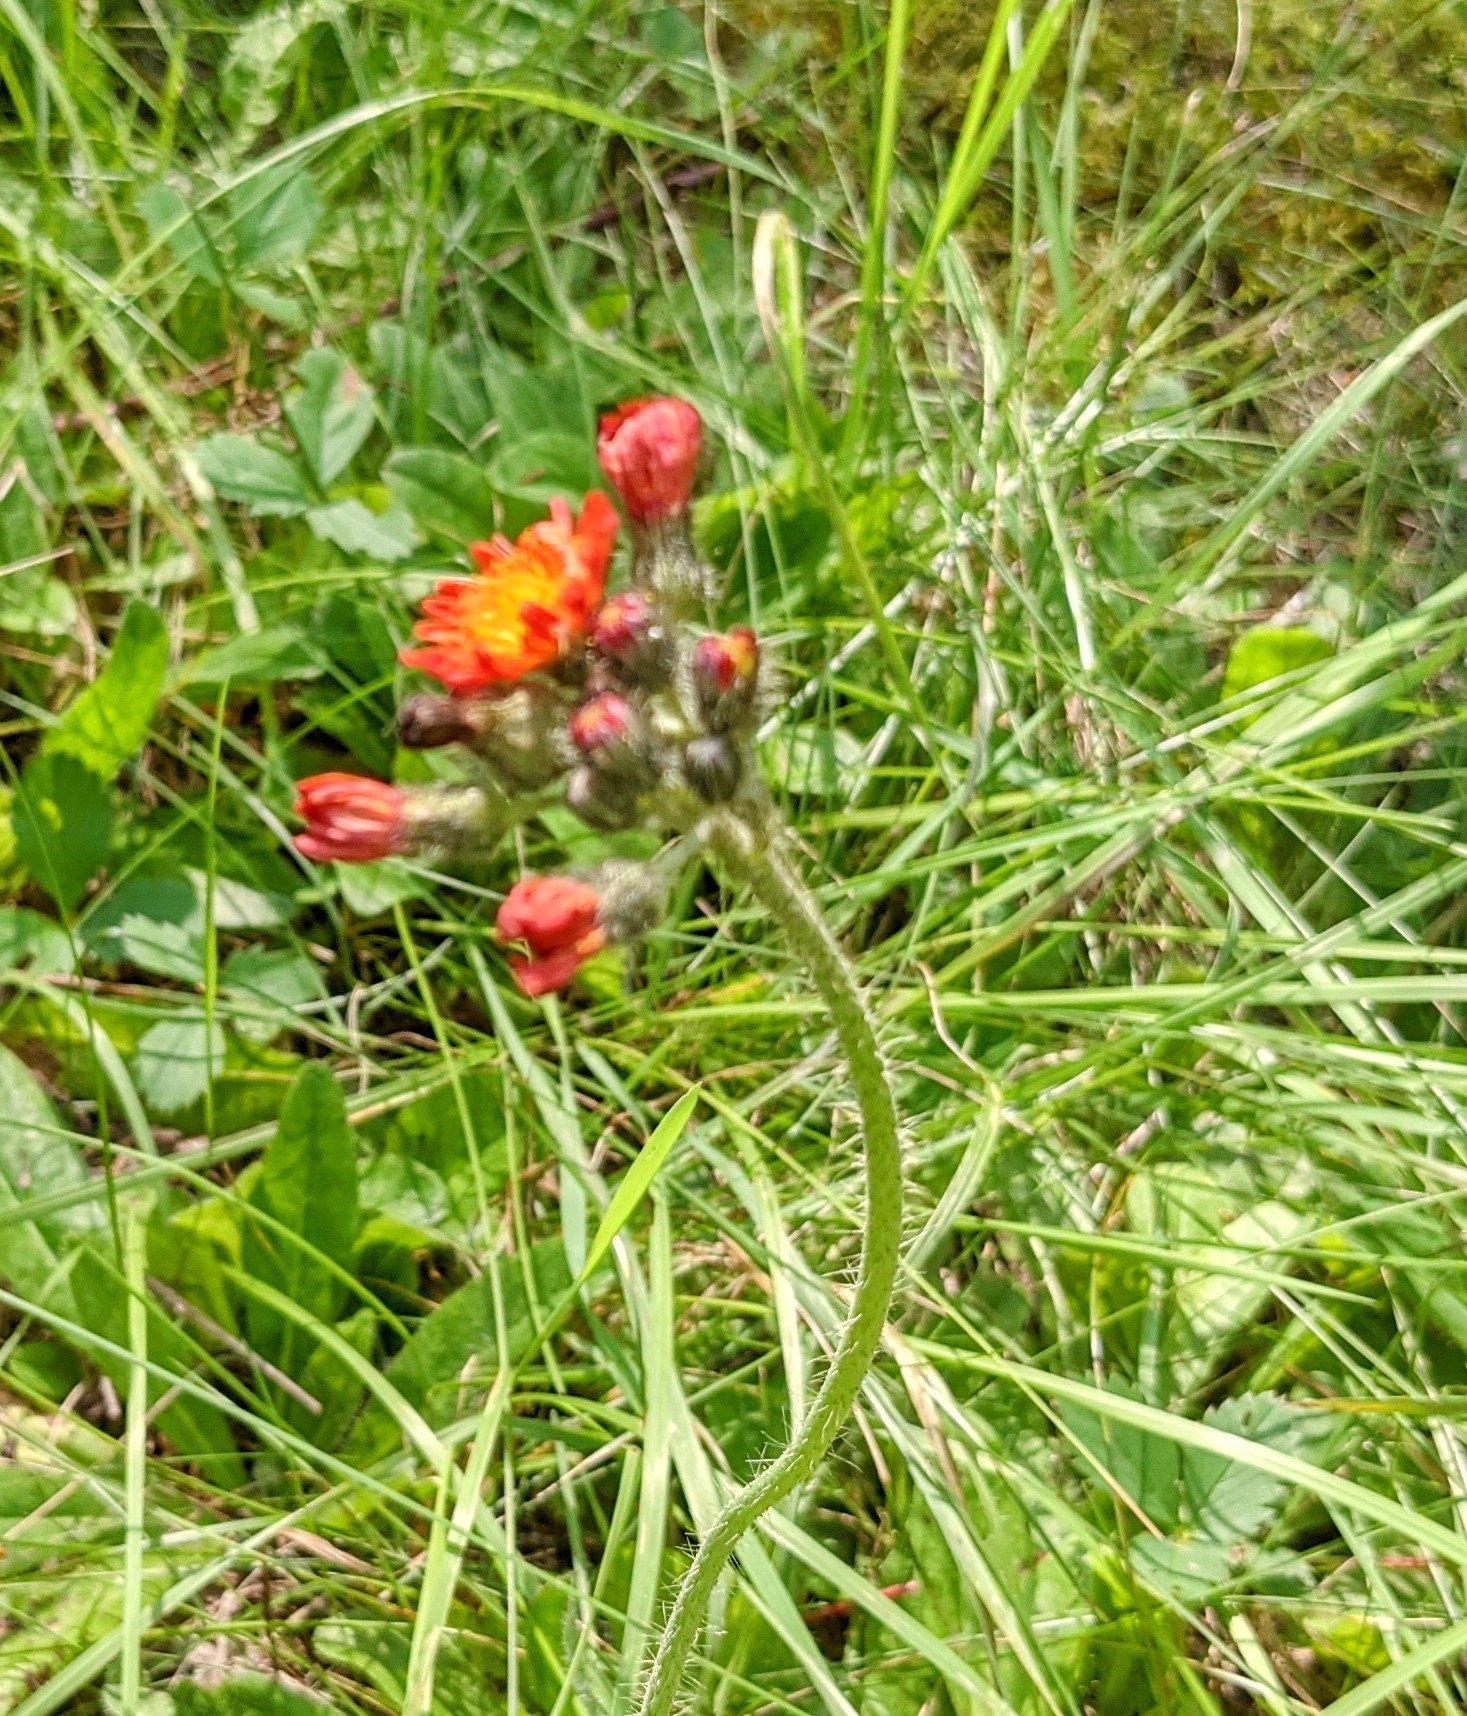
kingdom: Plantae
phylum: Tracheophyta
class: Magnoliopsida
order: Asterales
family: Asteraceae
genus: Pilosella
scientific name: Pilosella aurantiaca
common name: Fox-and-cubs
